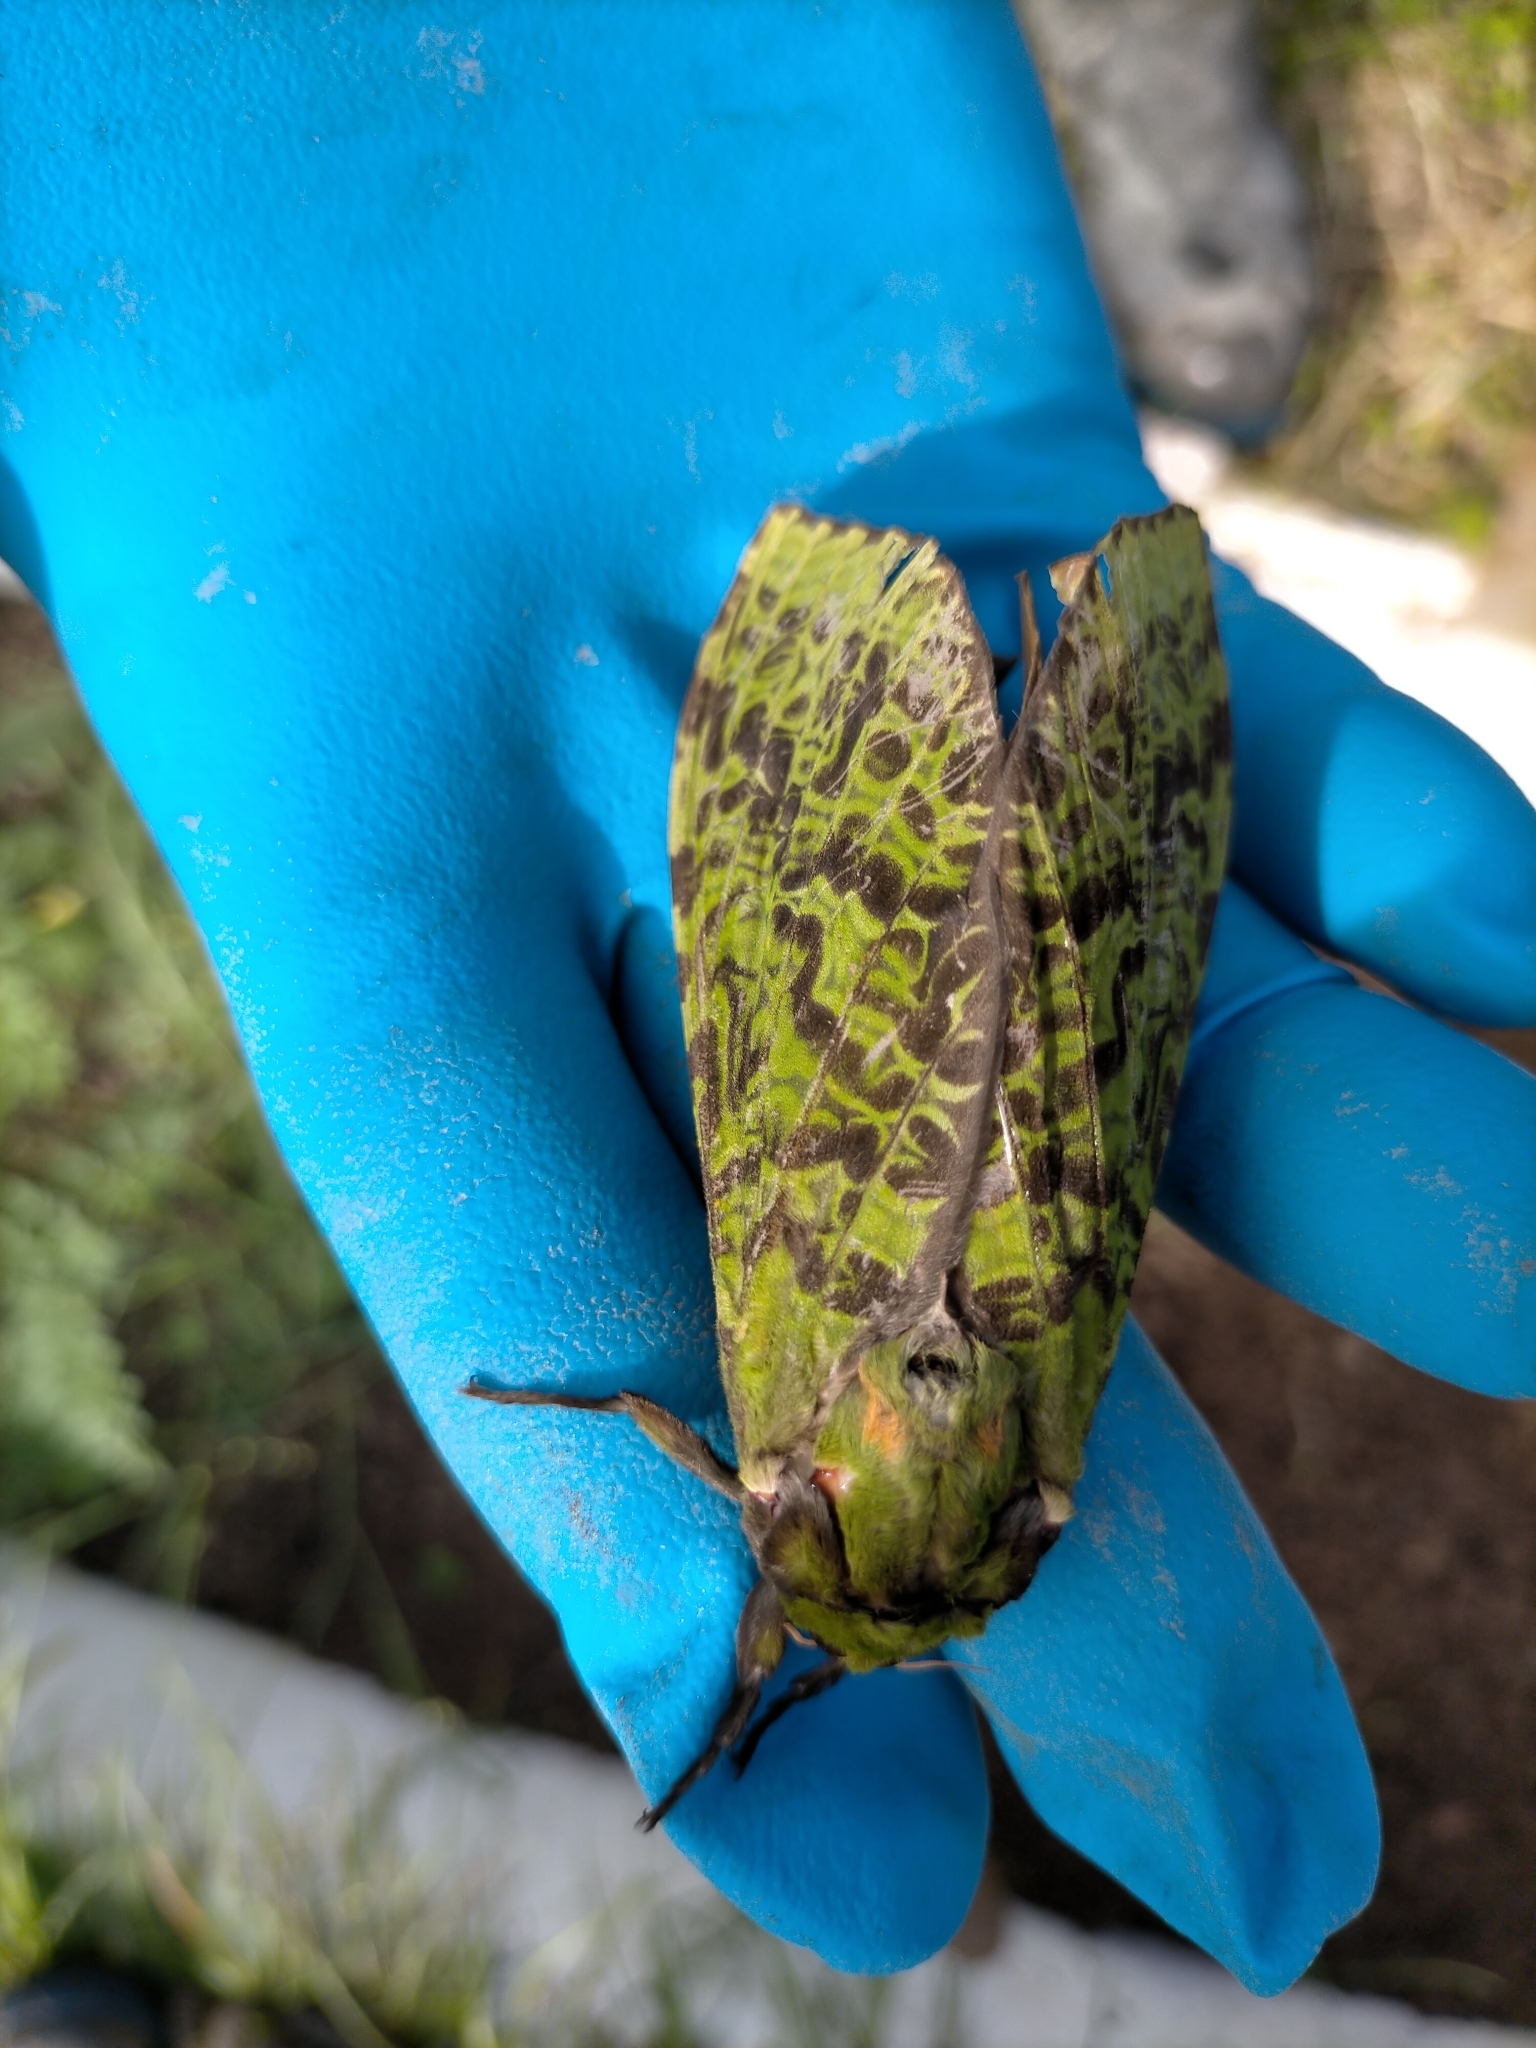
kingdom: Animalia
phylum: Arthropoda
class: Insecta
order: Lepidoptera
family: Hepialidae
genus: Aenetus
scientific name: Aenetus virescens
